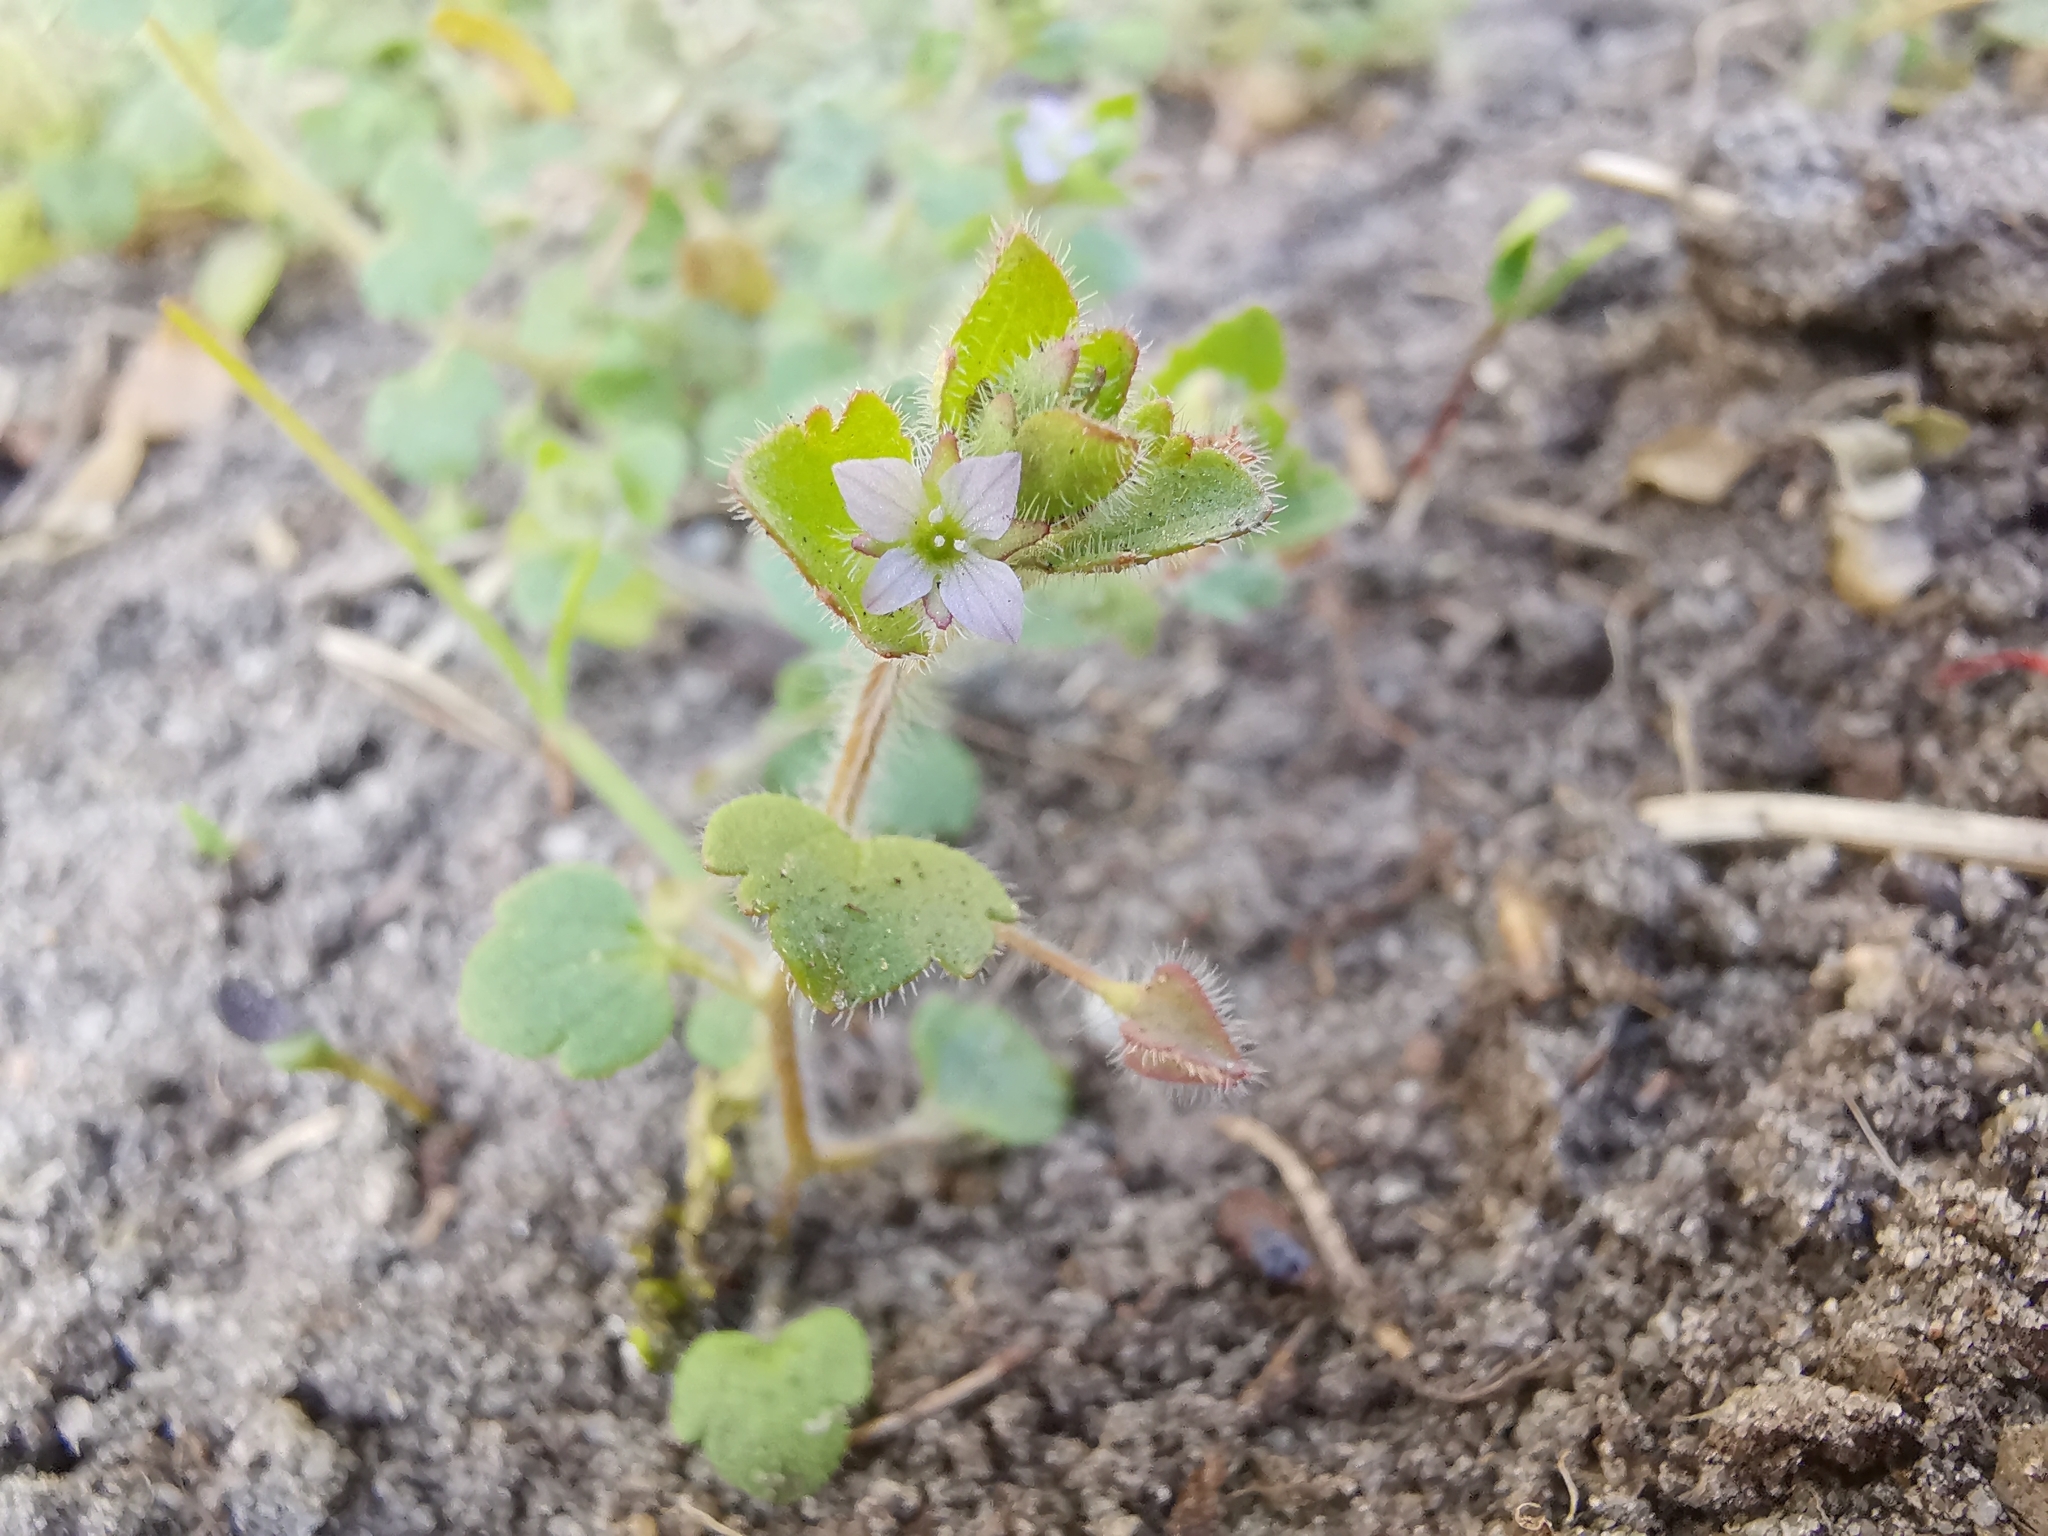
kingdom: Plantae
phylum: Tracheophyta
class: Magnoliopsida
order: Lamiales
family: Plantaginaceae
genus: Veronica
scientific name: Veronica sublobata
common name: False ivy-leaved speedwell
